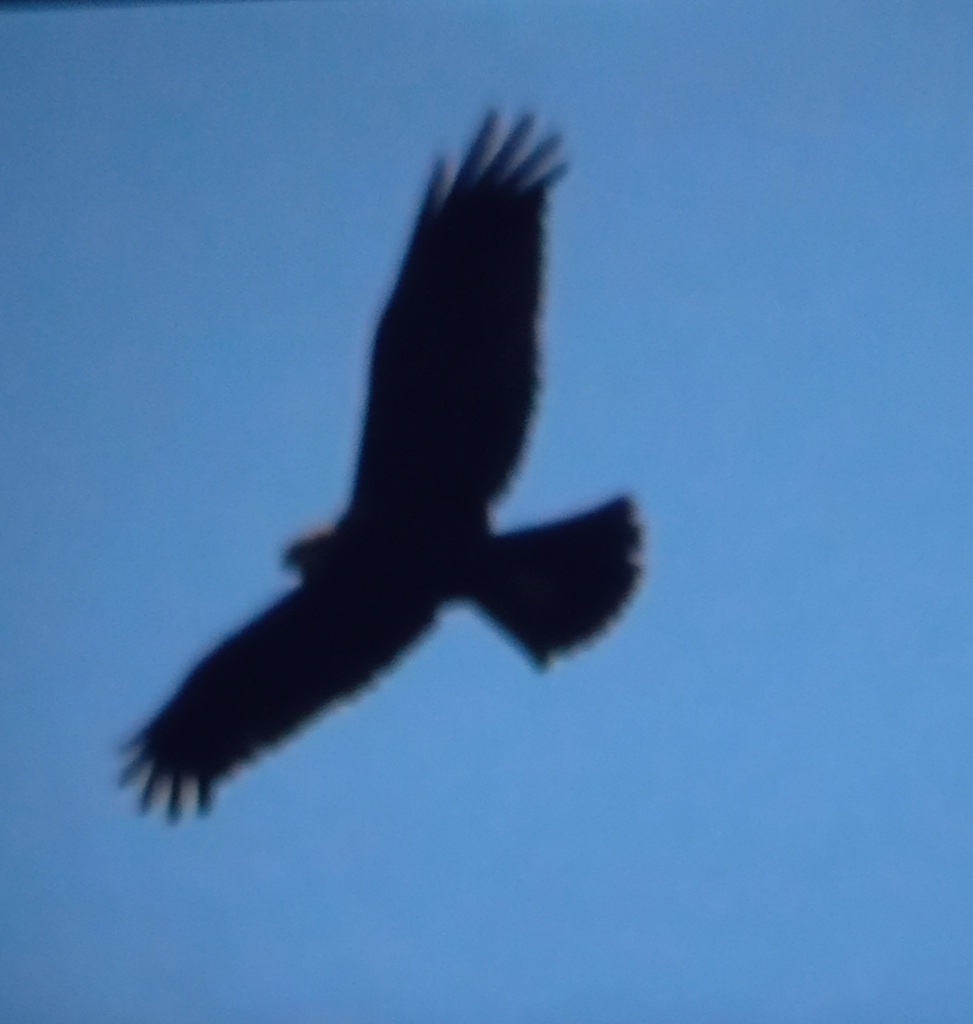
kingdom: Animalia
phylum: Chordata
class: Aves
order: Accipitriformes
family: Accipitridae
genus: Circus
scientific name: Circus aeruginosus
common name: Western marsh harrier
